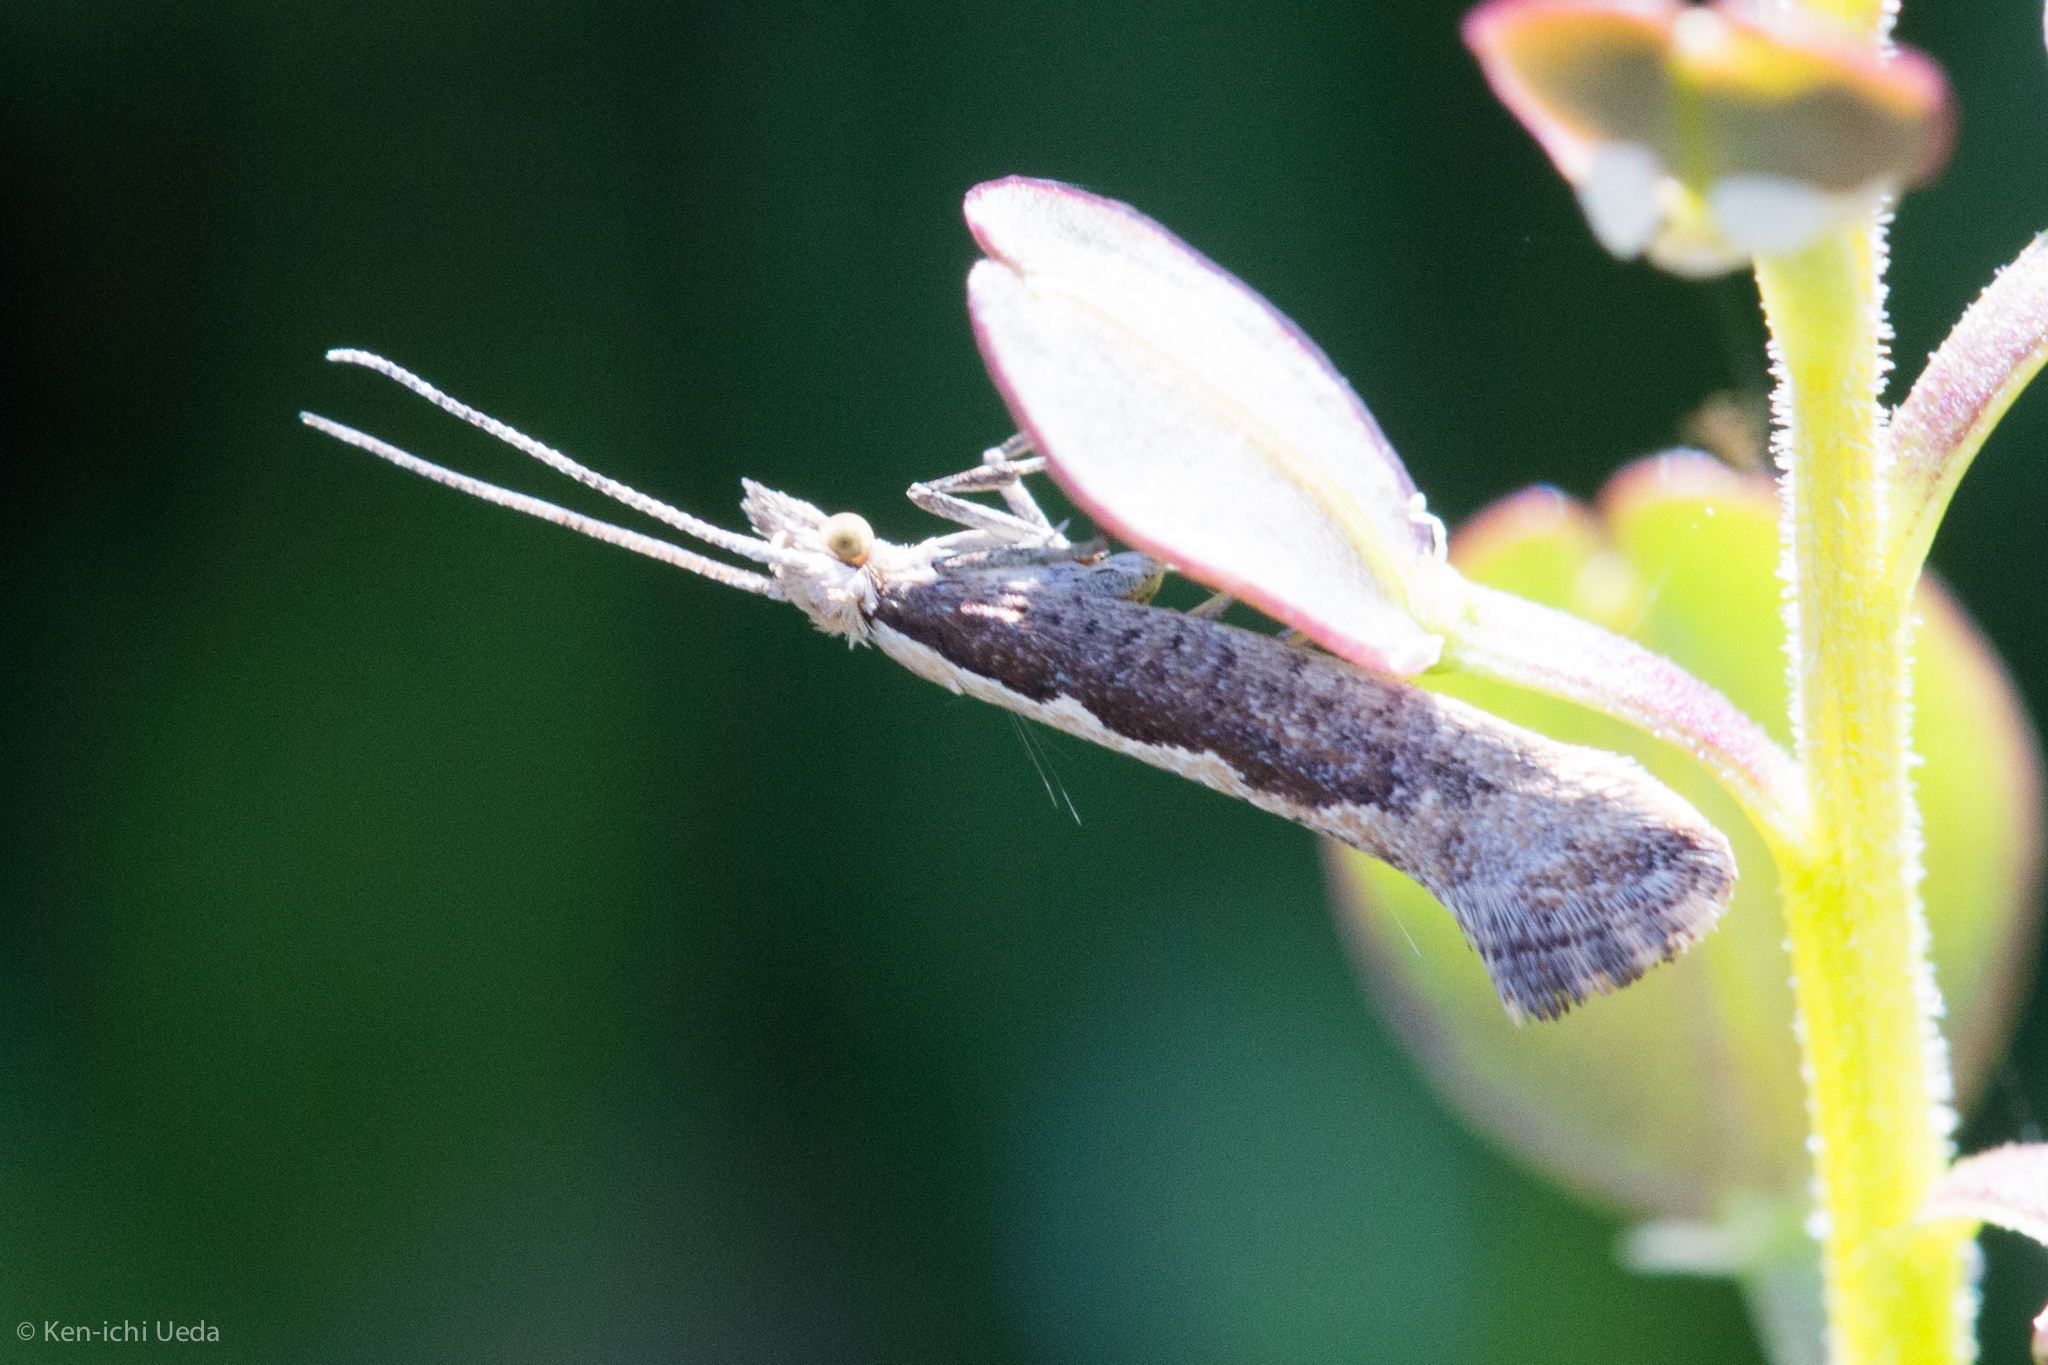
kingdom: Animalia
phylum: Arthropoda
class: Insecta
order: Lepidoptera
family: Plutellidae
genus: Plutella
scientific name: Plutella xylostella
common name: Diamond-back moth
